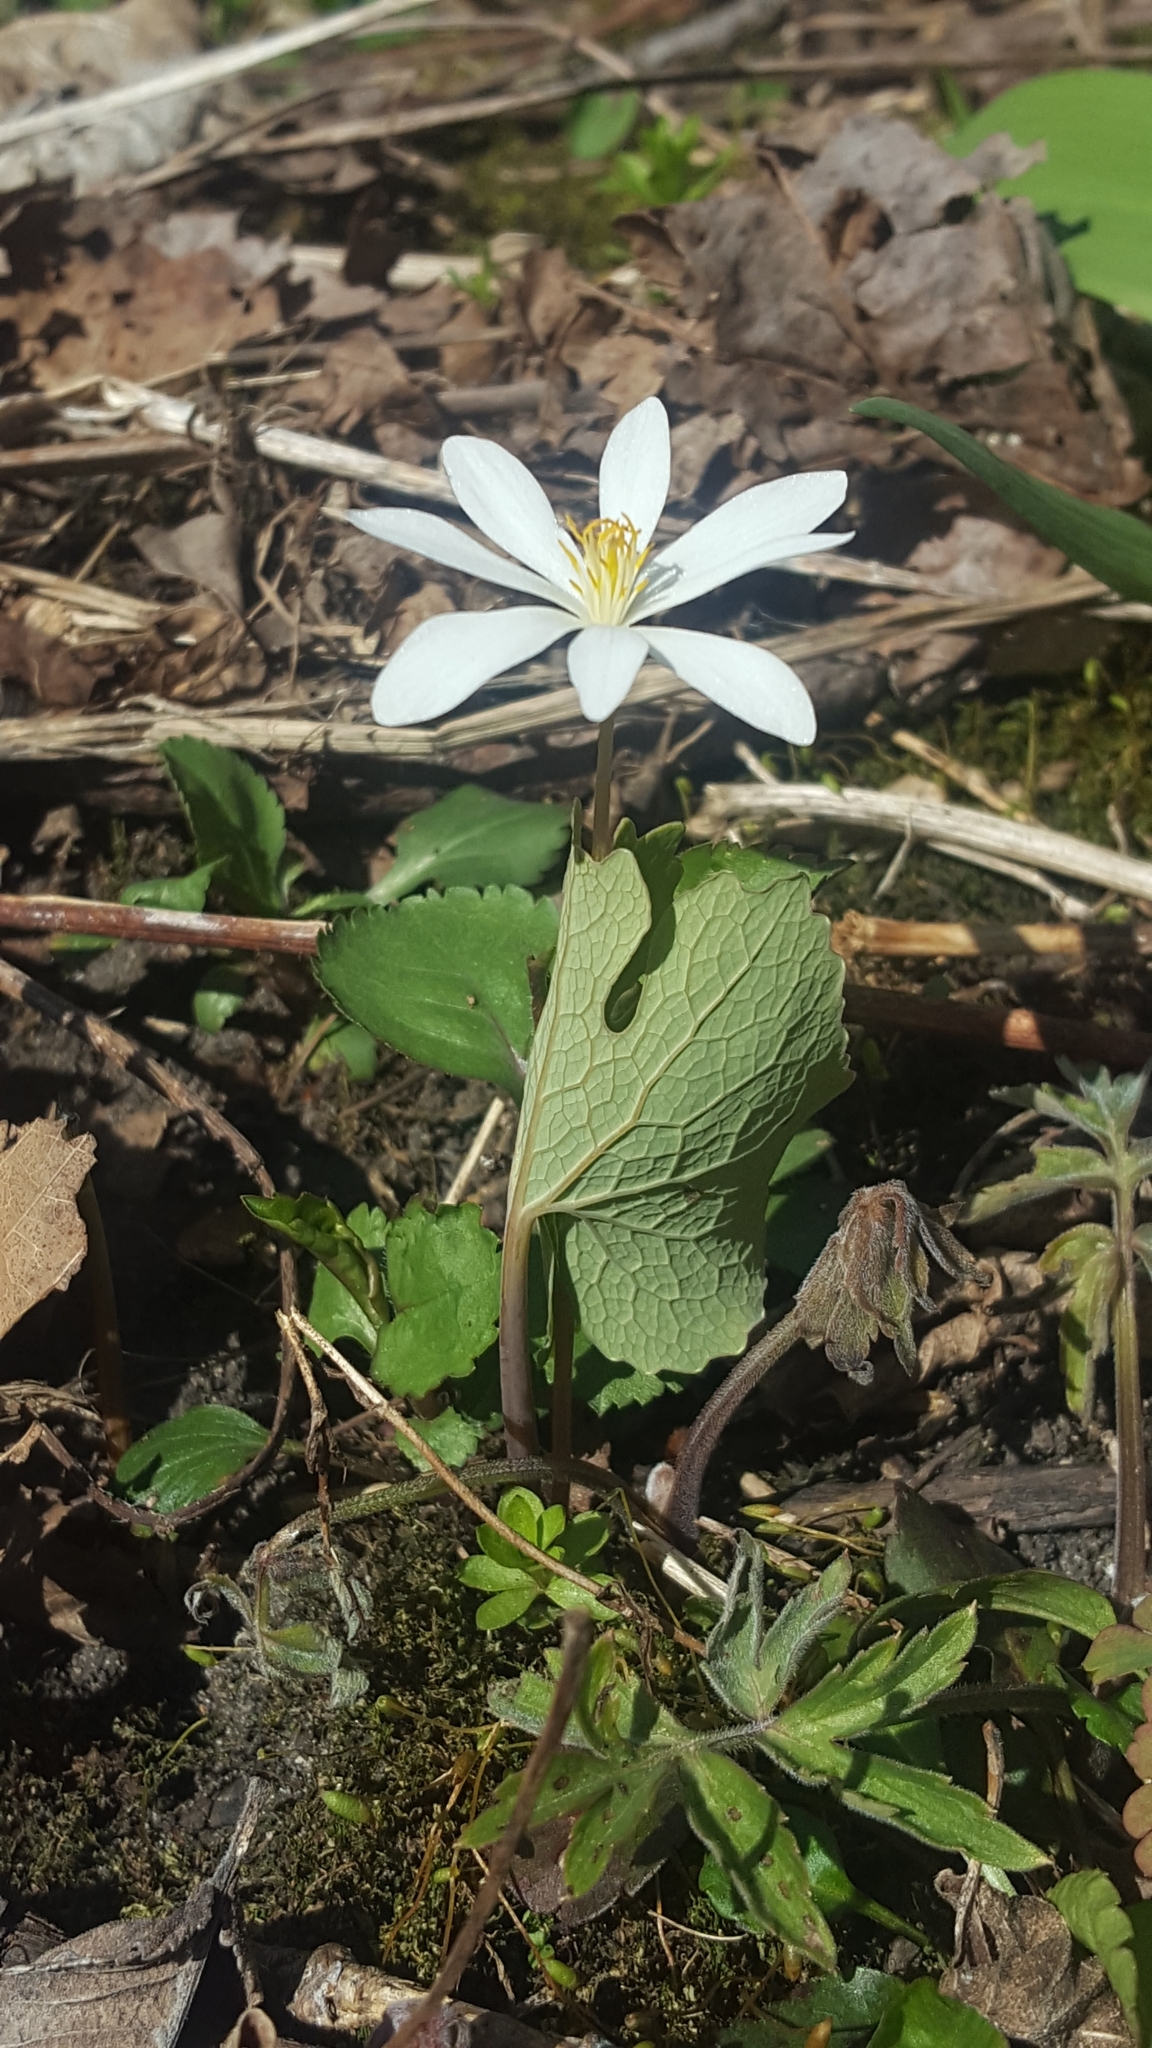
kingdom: Plantae
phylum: Tracheophyta
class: Magnoliopsida
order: Ranunculales
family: Papaveraceae
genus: Sanguinaria
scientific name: Sanguinaria canadensis
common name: Bloodroot
